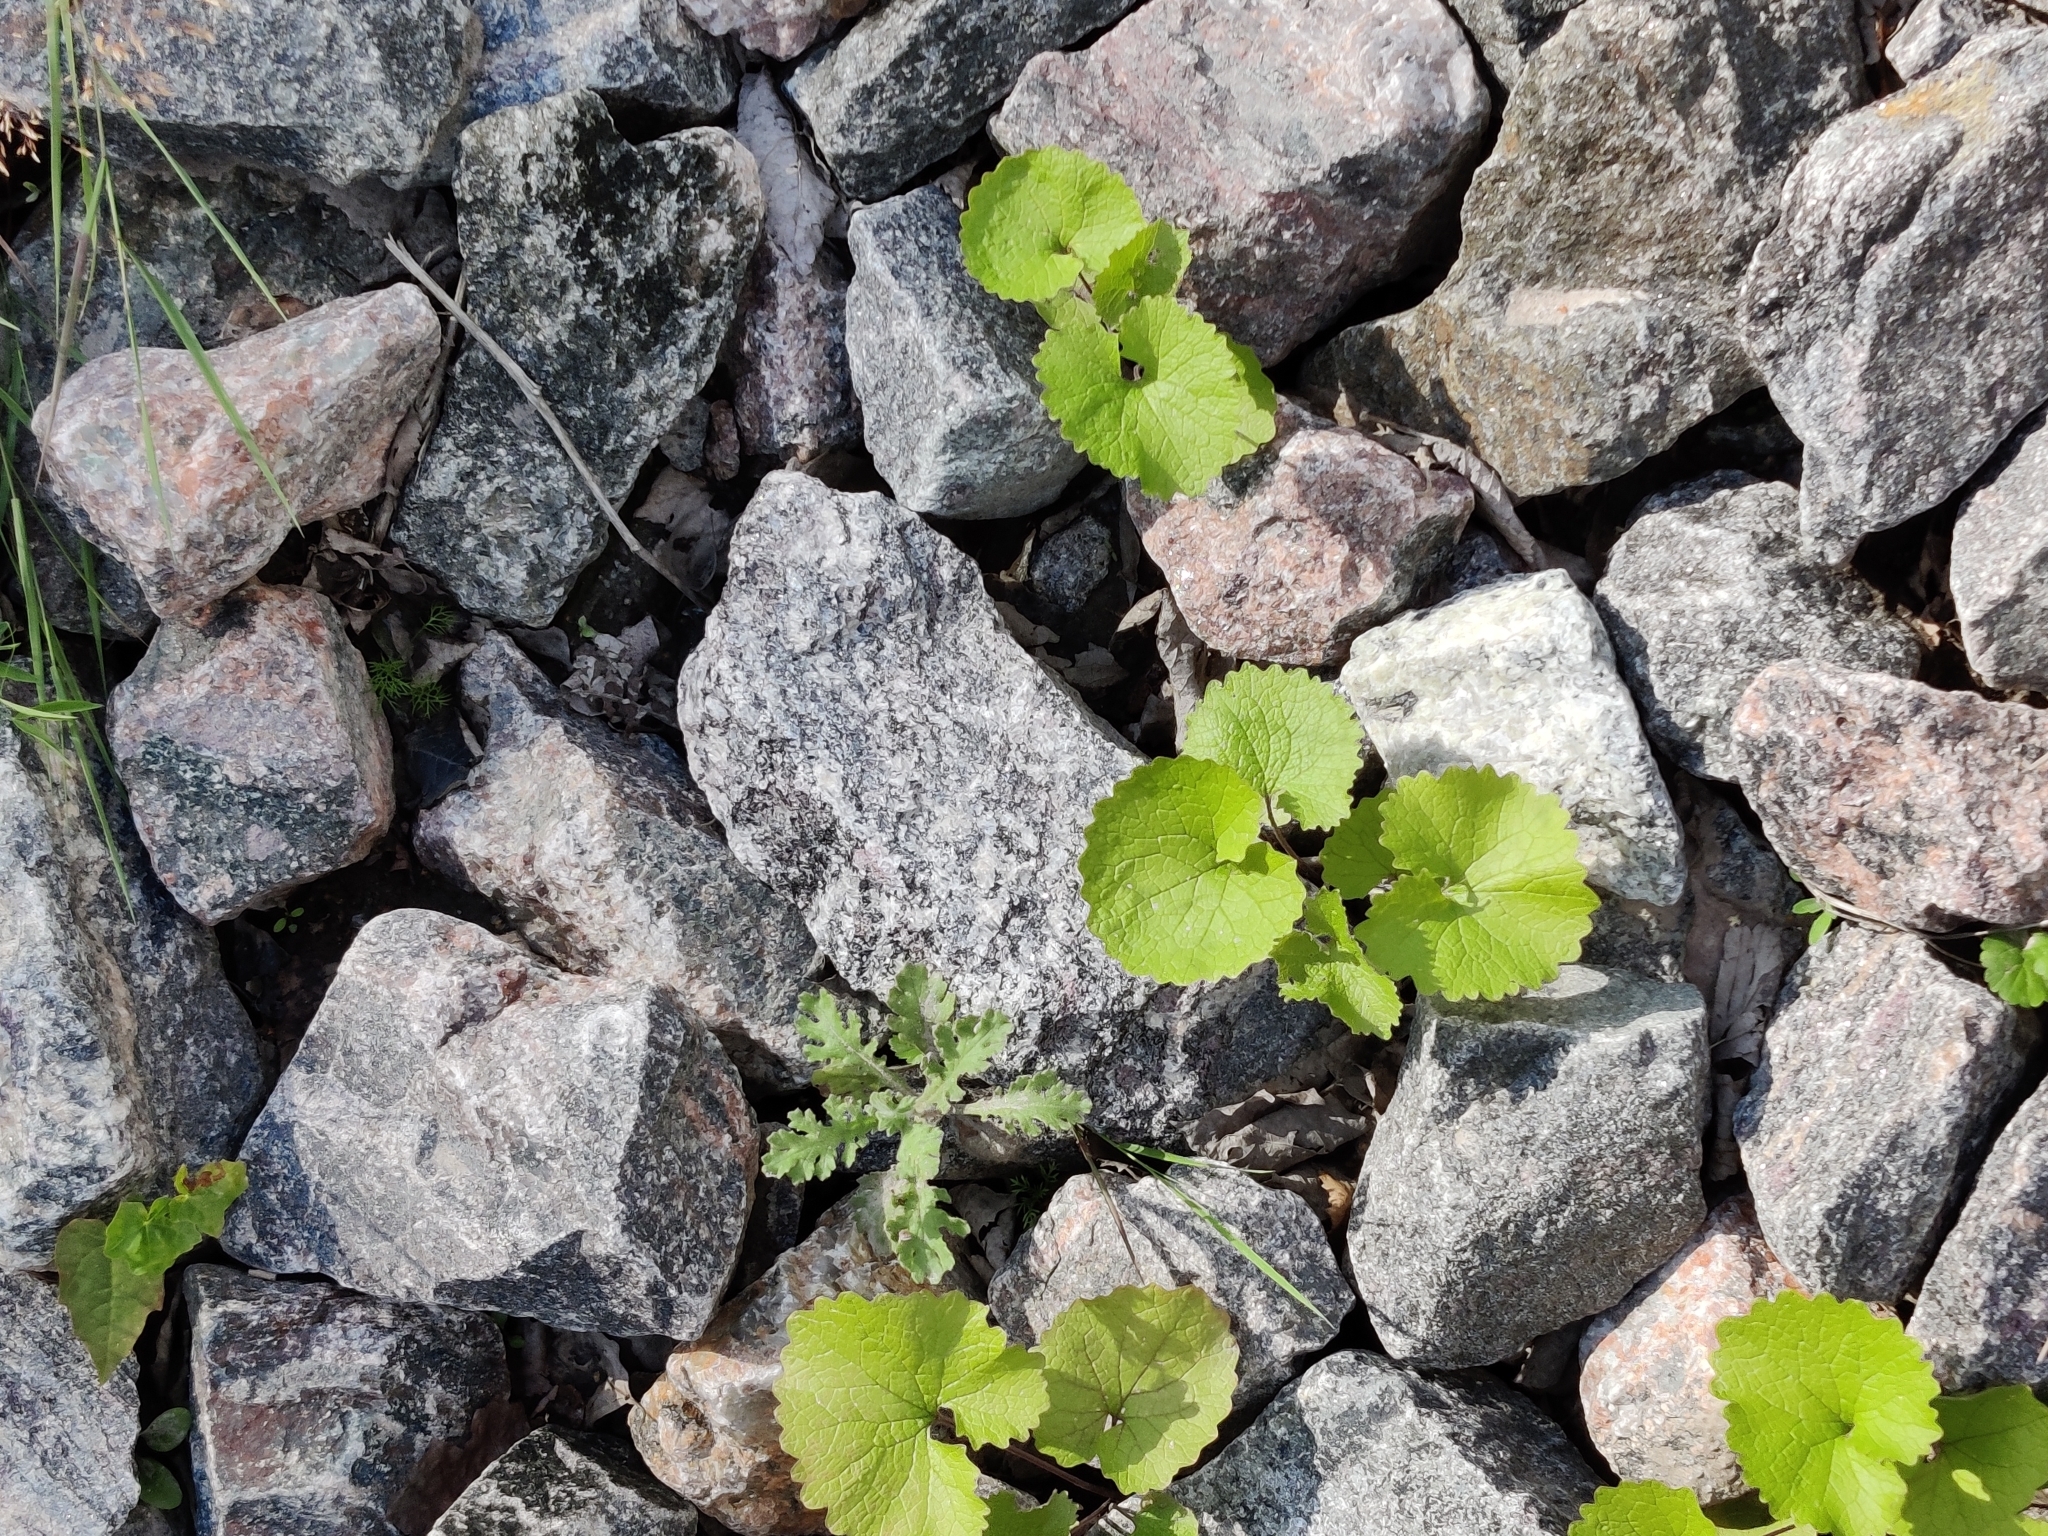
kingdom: Plantae
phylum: Tracheophyta
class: Magnoliopsida
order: Brassicales
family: Brassicaceae
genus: Alliaria
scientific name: Alliaria petiolata
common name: Garlic mustard
